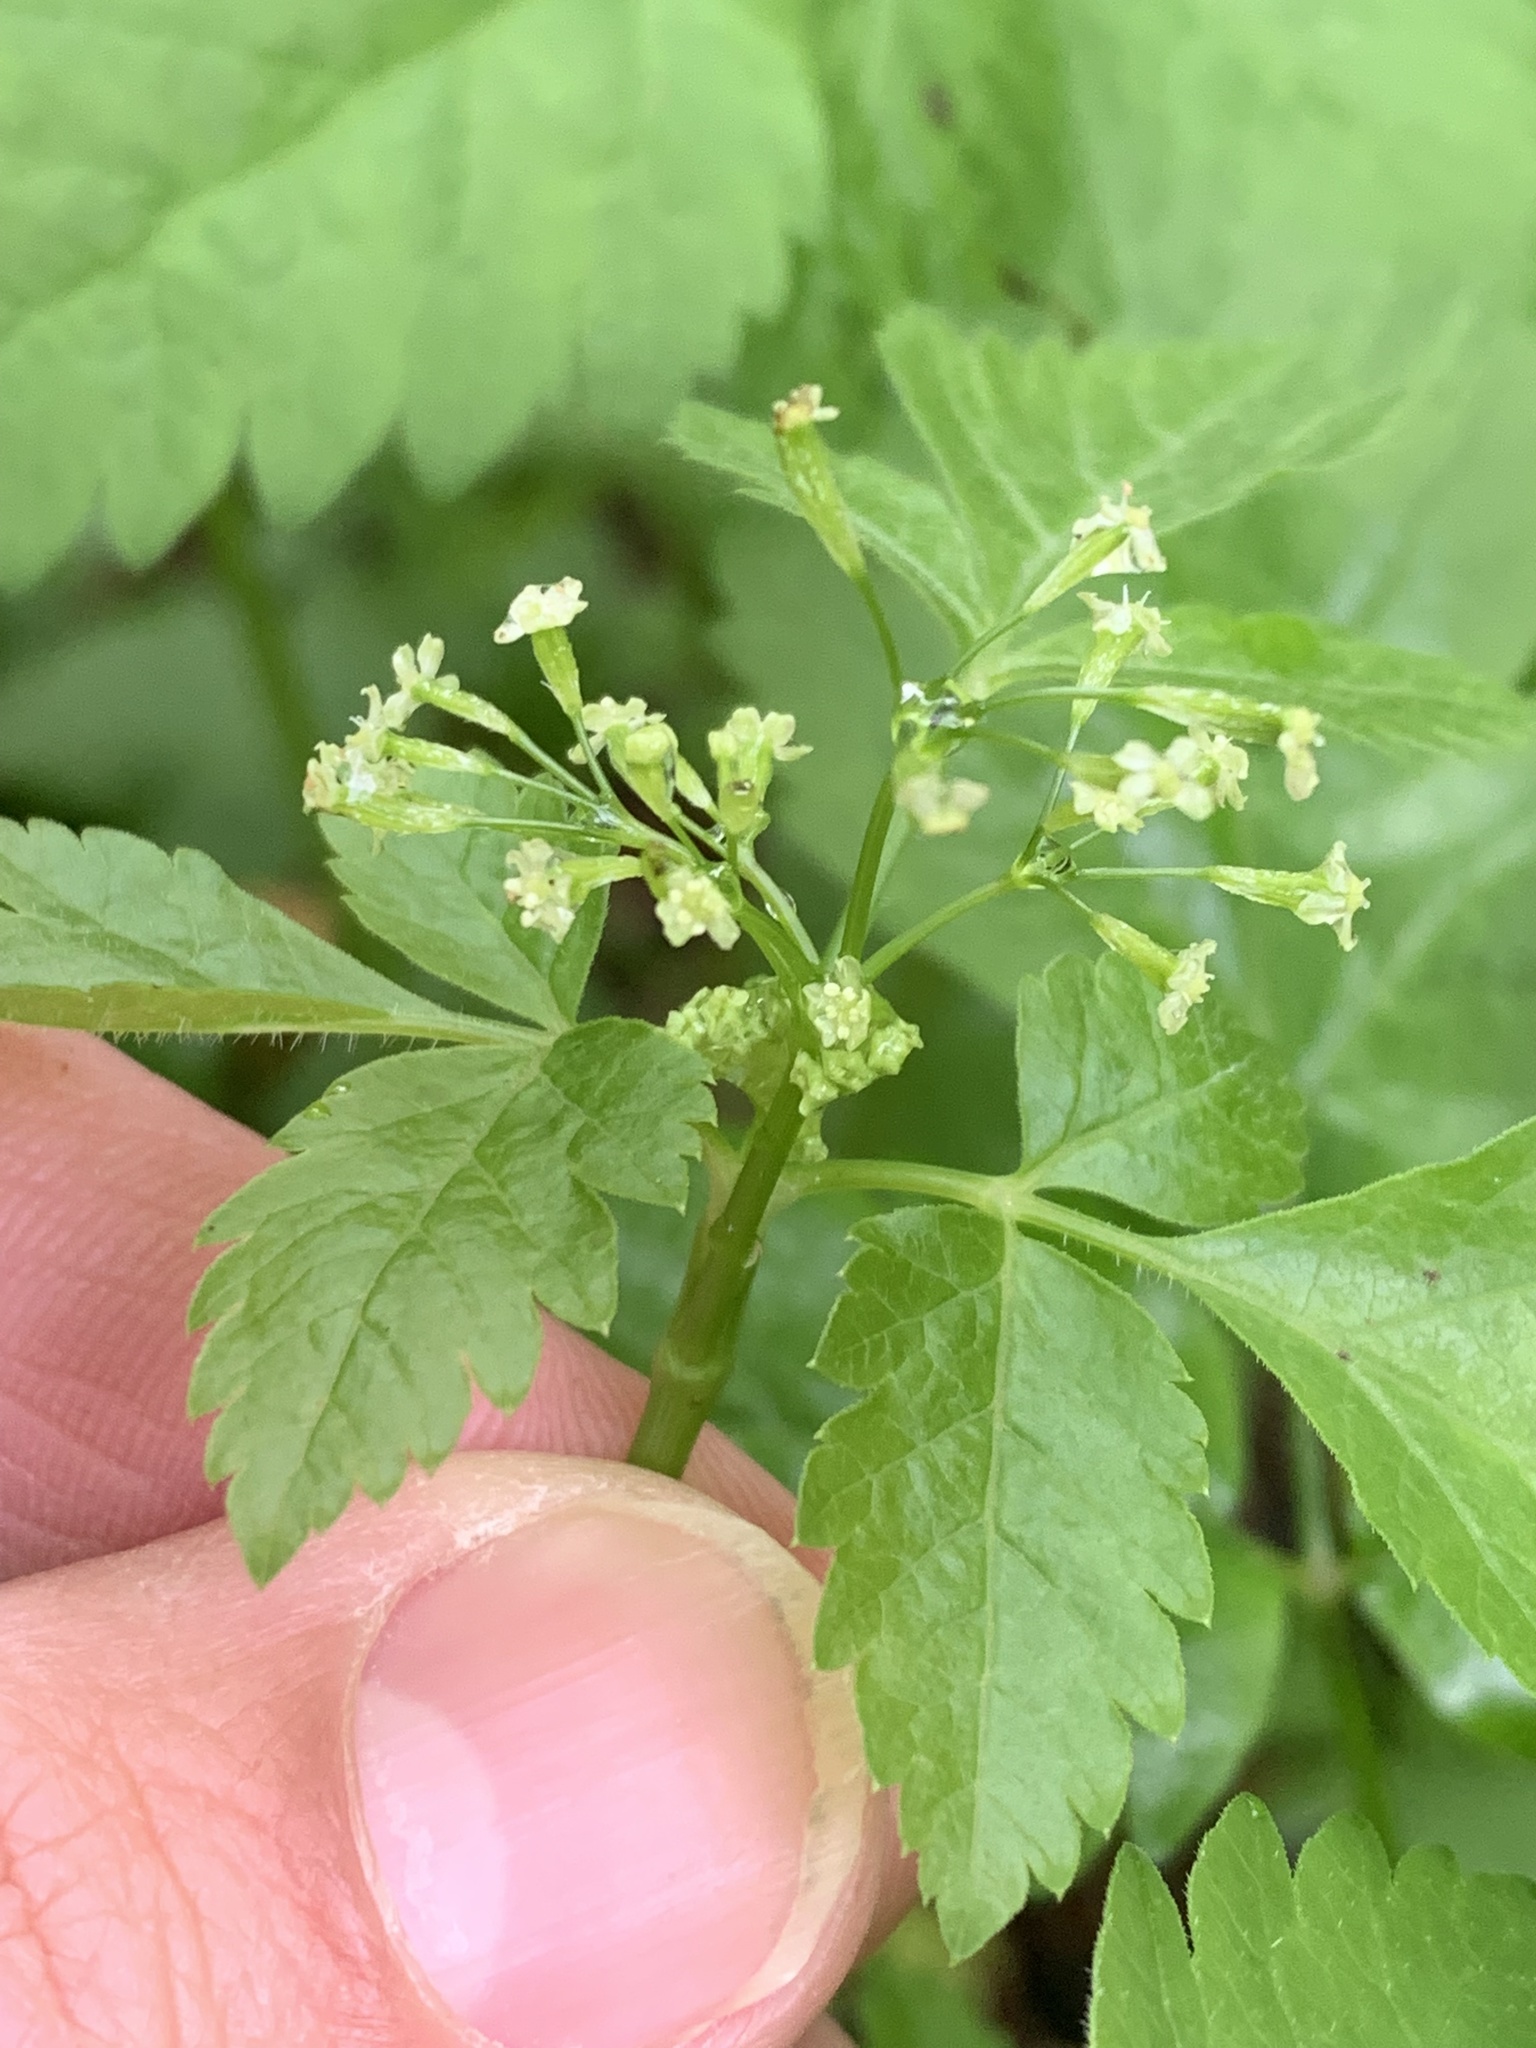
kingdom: Plantae
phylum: Tracheophyta
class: Magnoliopsida
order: Apiales
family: Apiaceae
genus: Osmorhiza
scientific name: Osmorhiza berteroi
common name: Mountain sweet cicely
